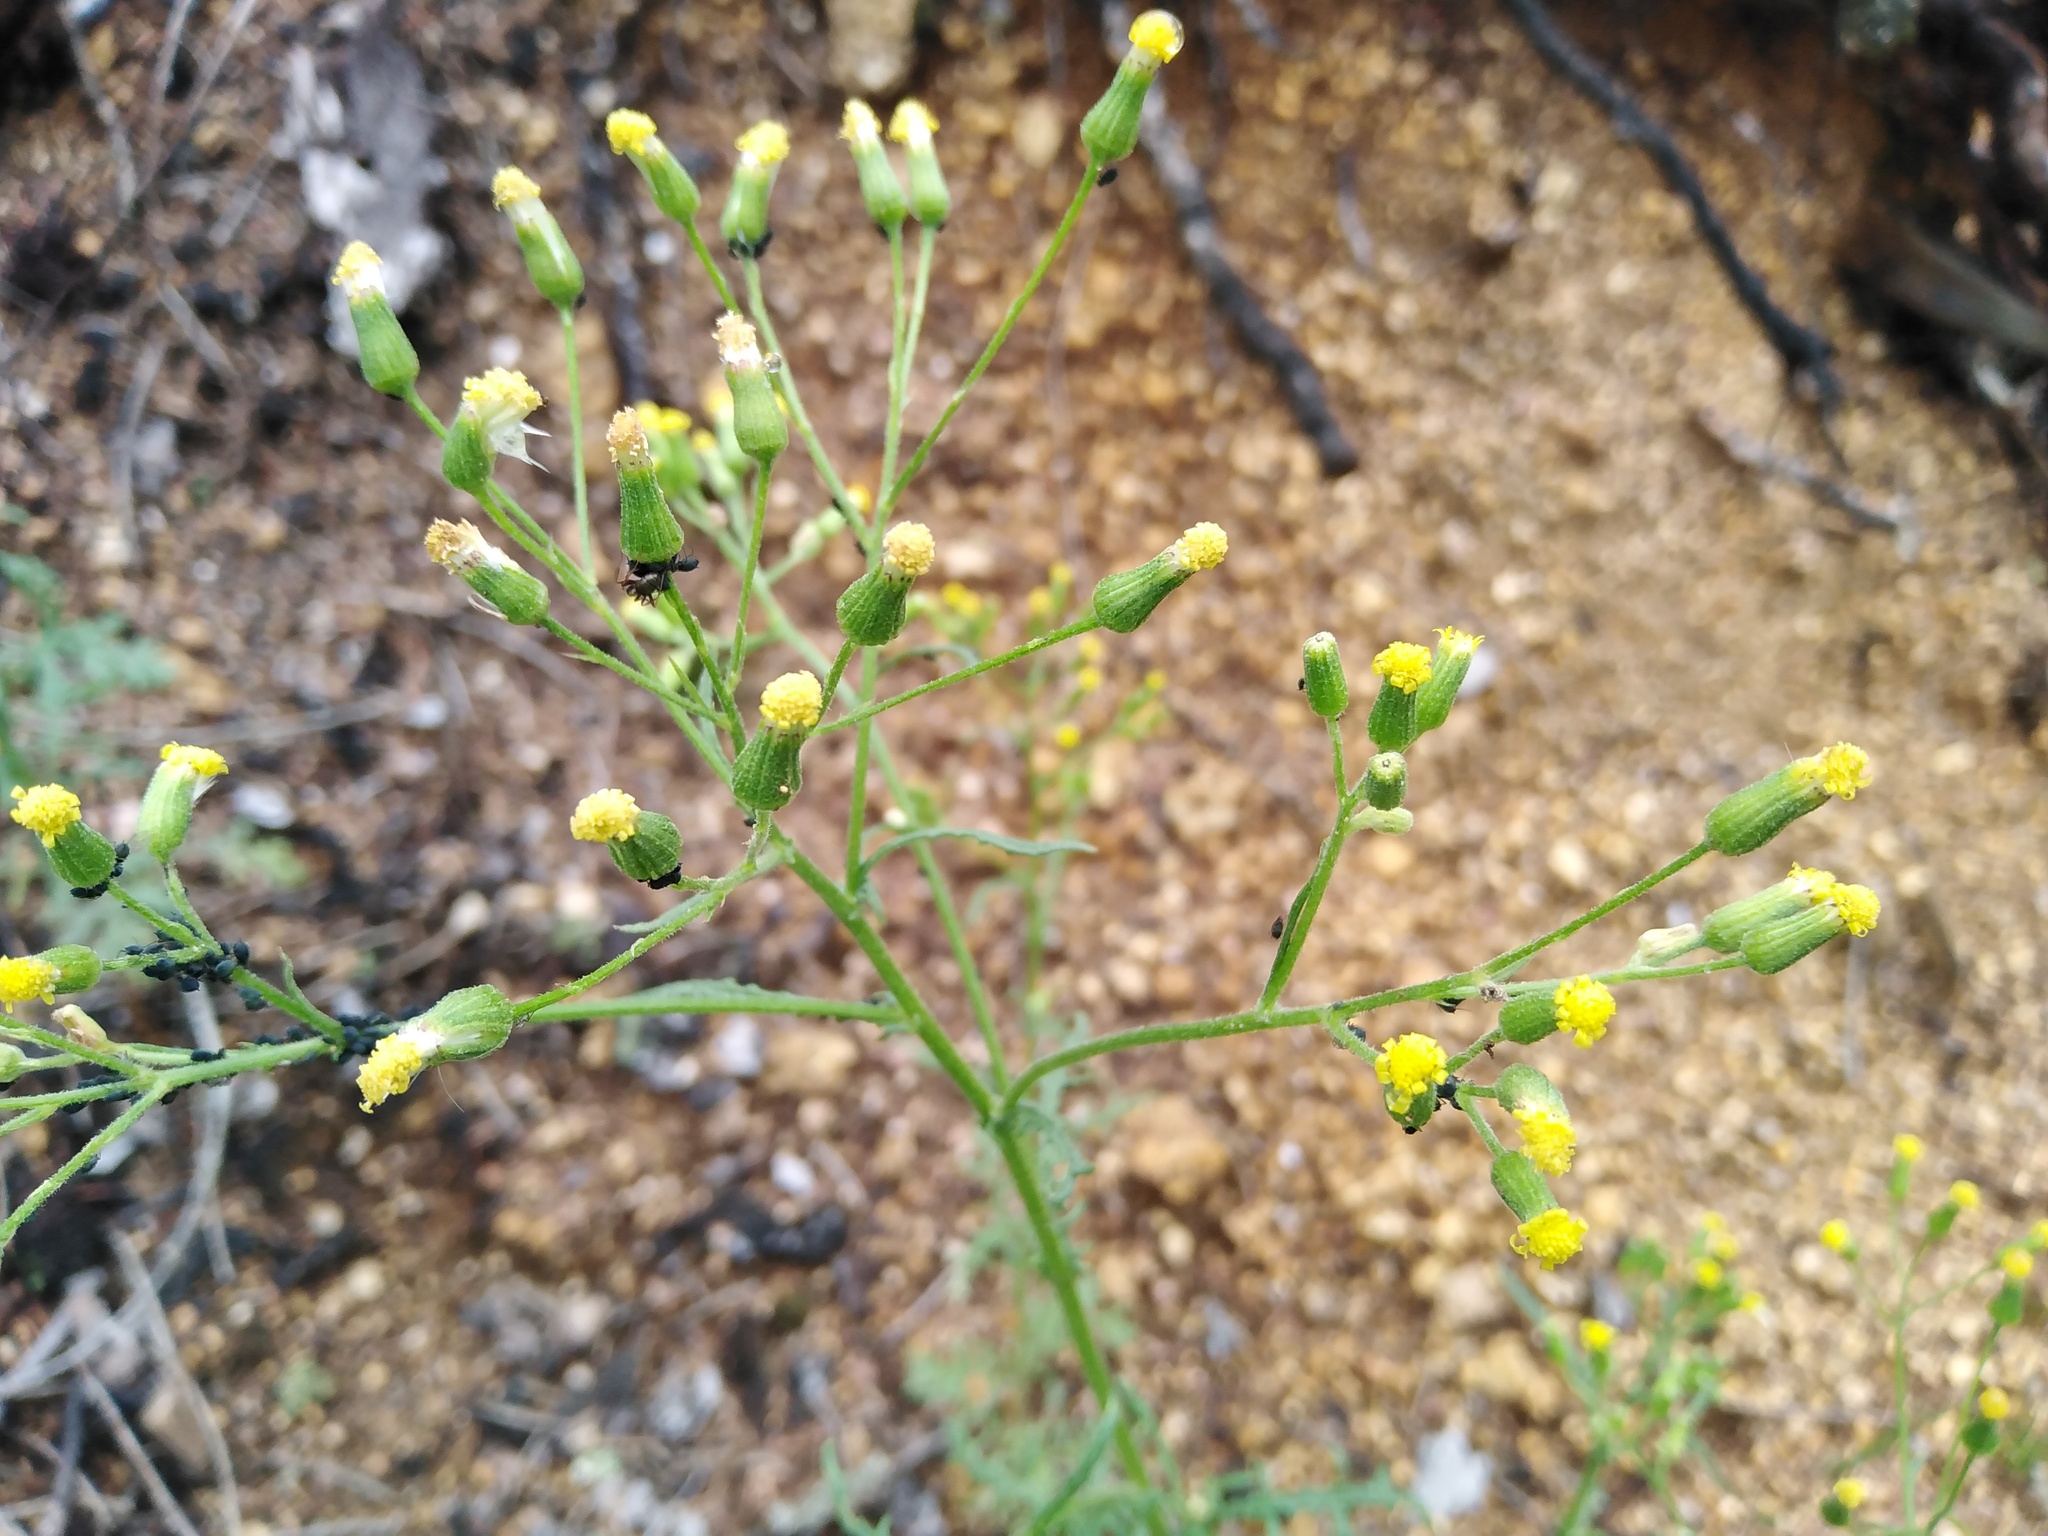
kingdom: Plantae
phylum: Tracheophyta
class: Magnoliopsida
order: Asterales
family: Asteraceae
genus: Senecio
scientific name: Senecio sylvaticus
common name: Woodland ragwort
